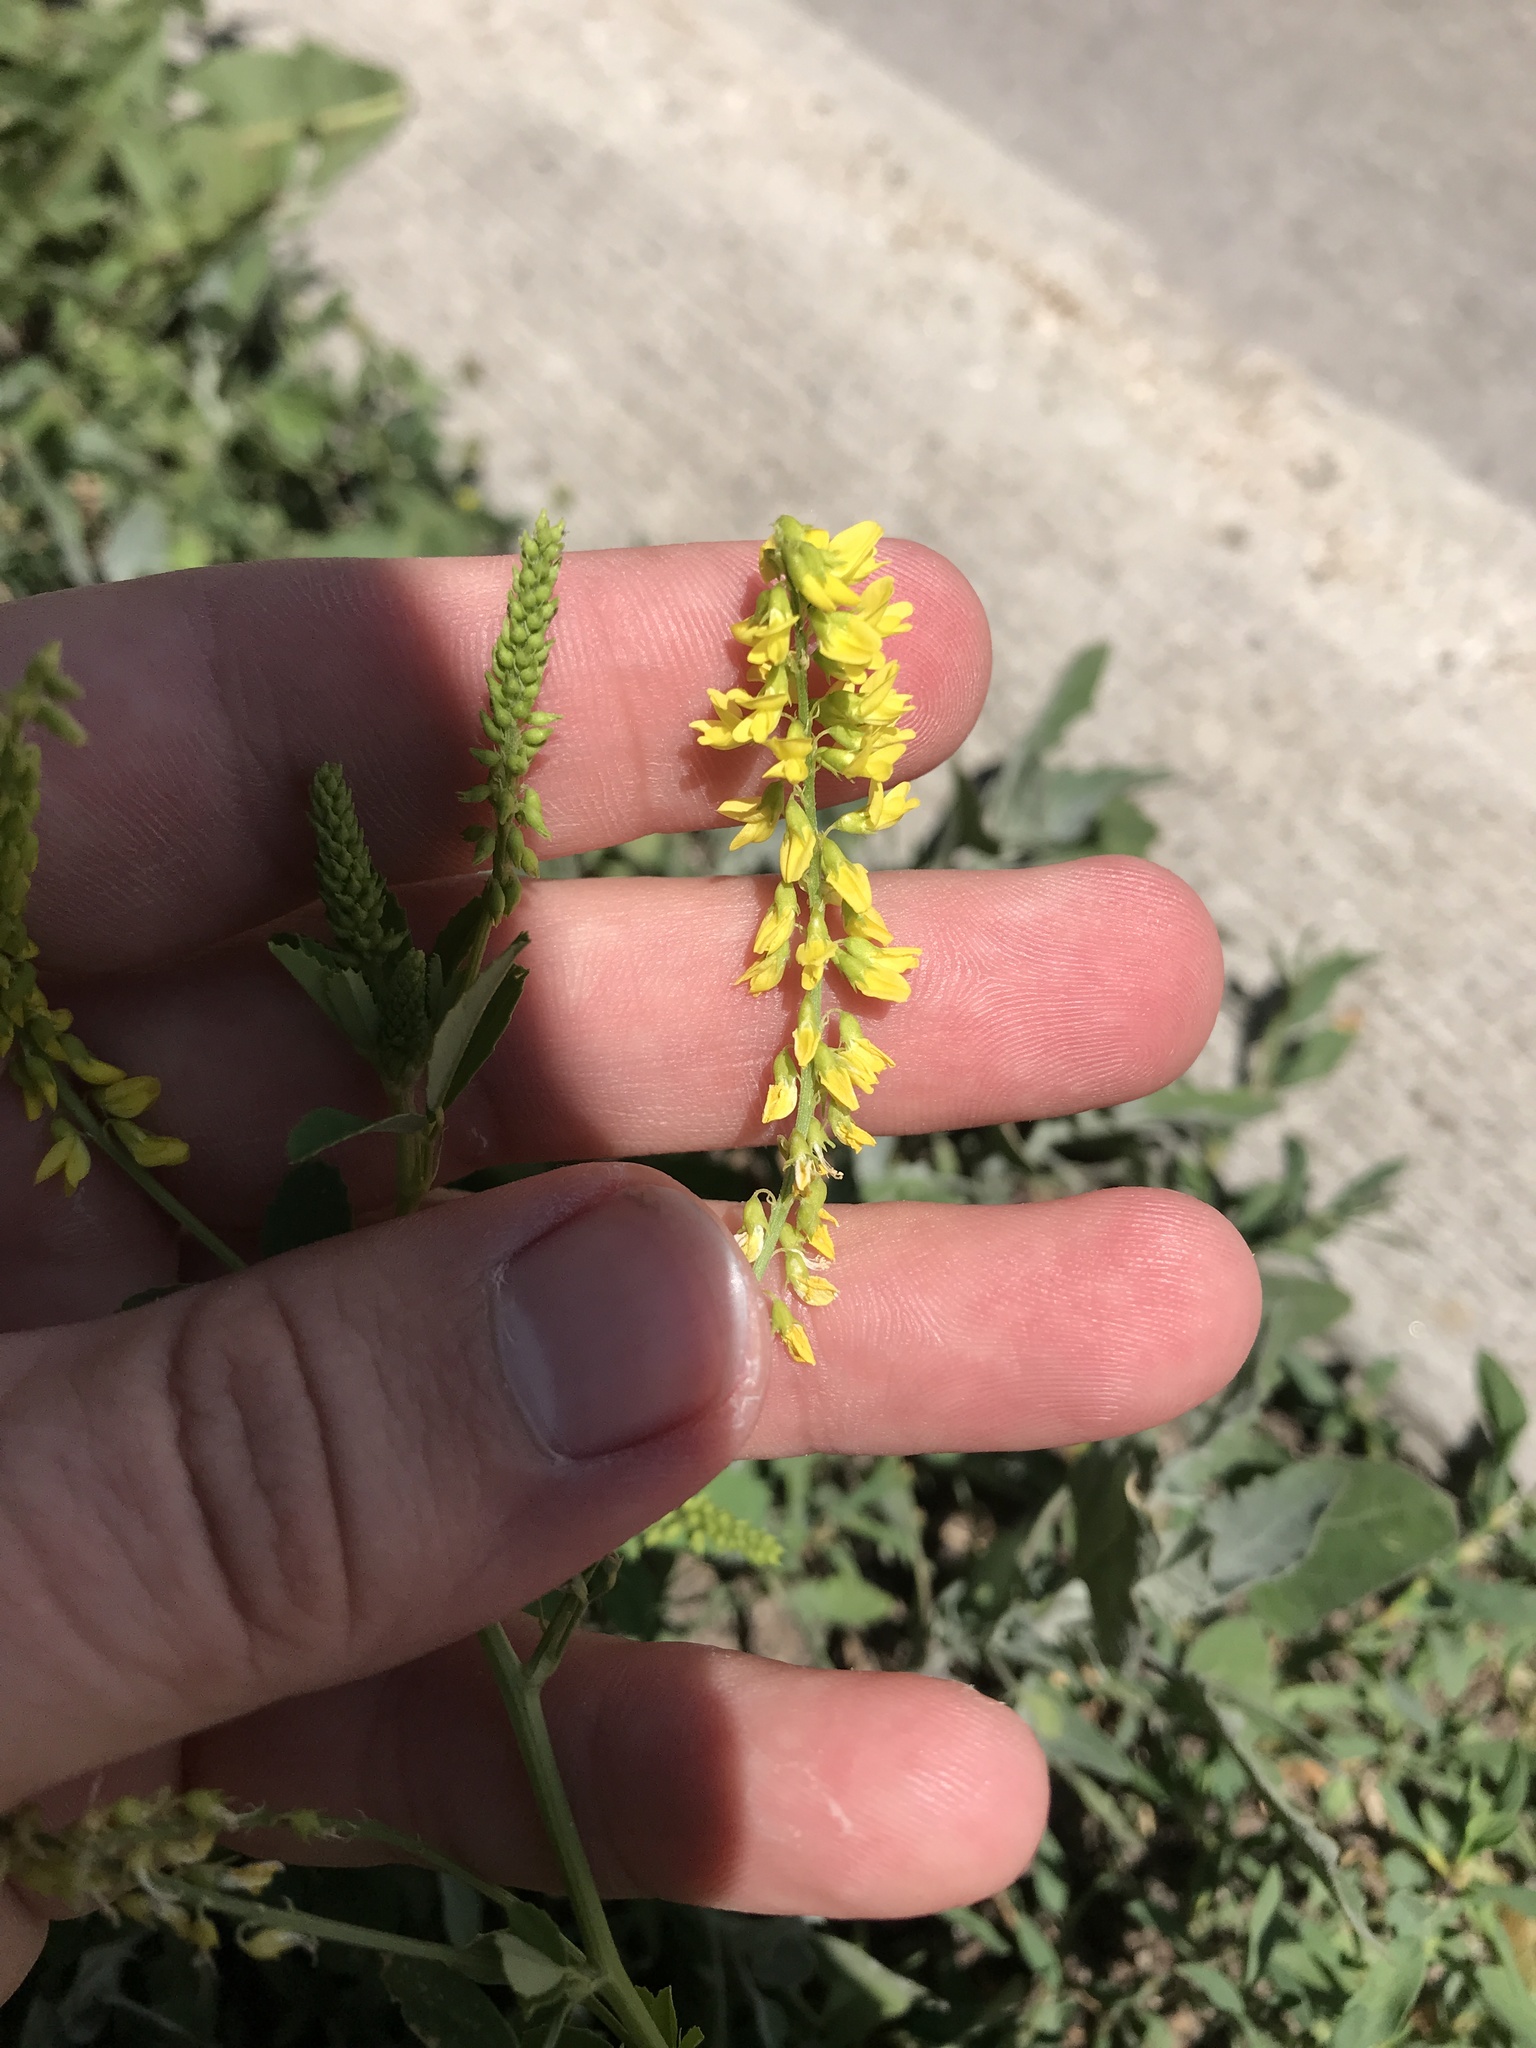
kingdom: Plantae
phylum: Tracheophyta
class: Magnoliopsida
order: Fabales
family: Fabaceae
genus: Melilotus
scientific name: Melilotus officinalis
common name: Sweetclover
